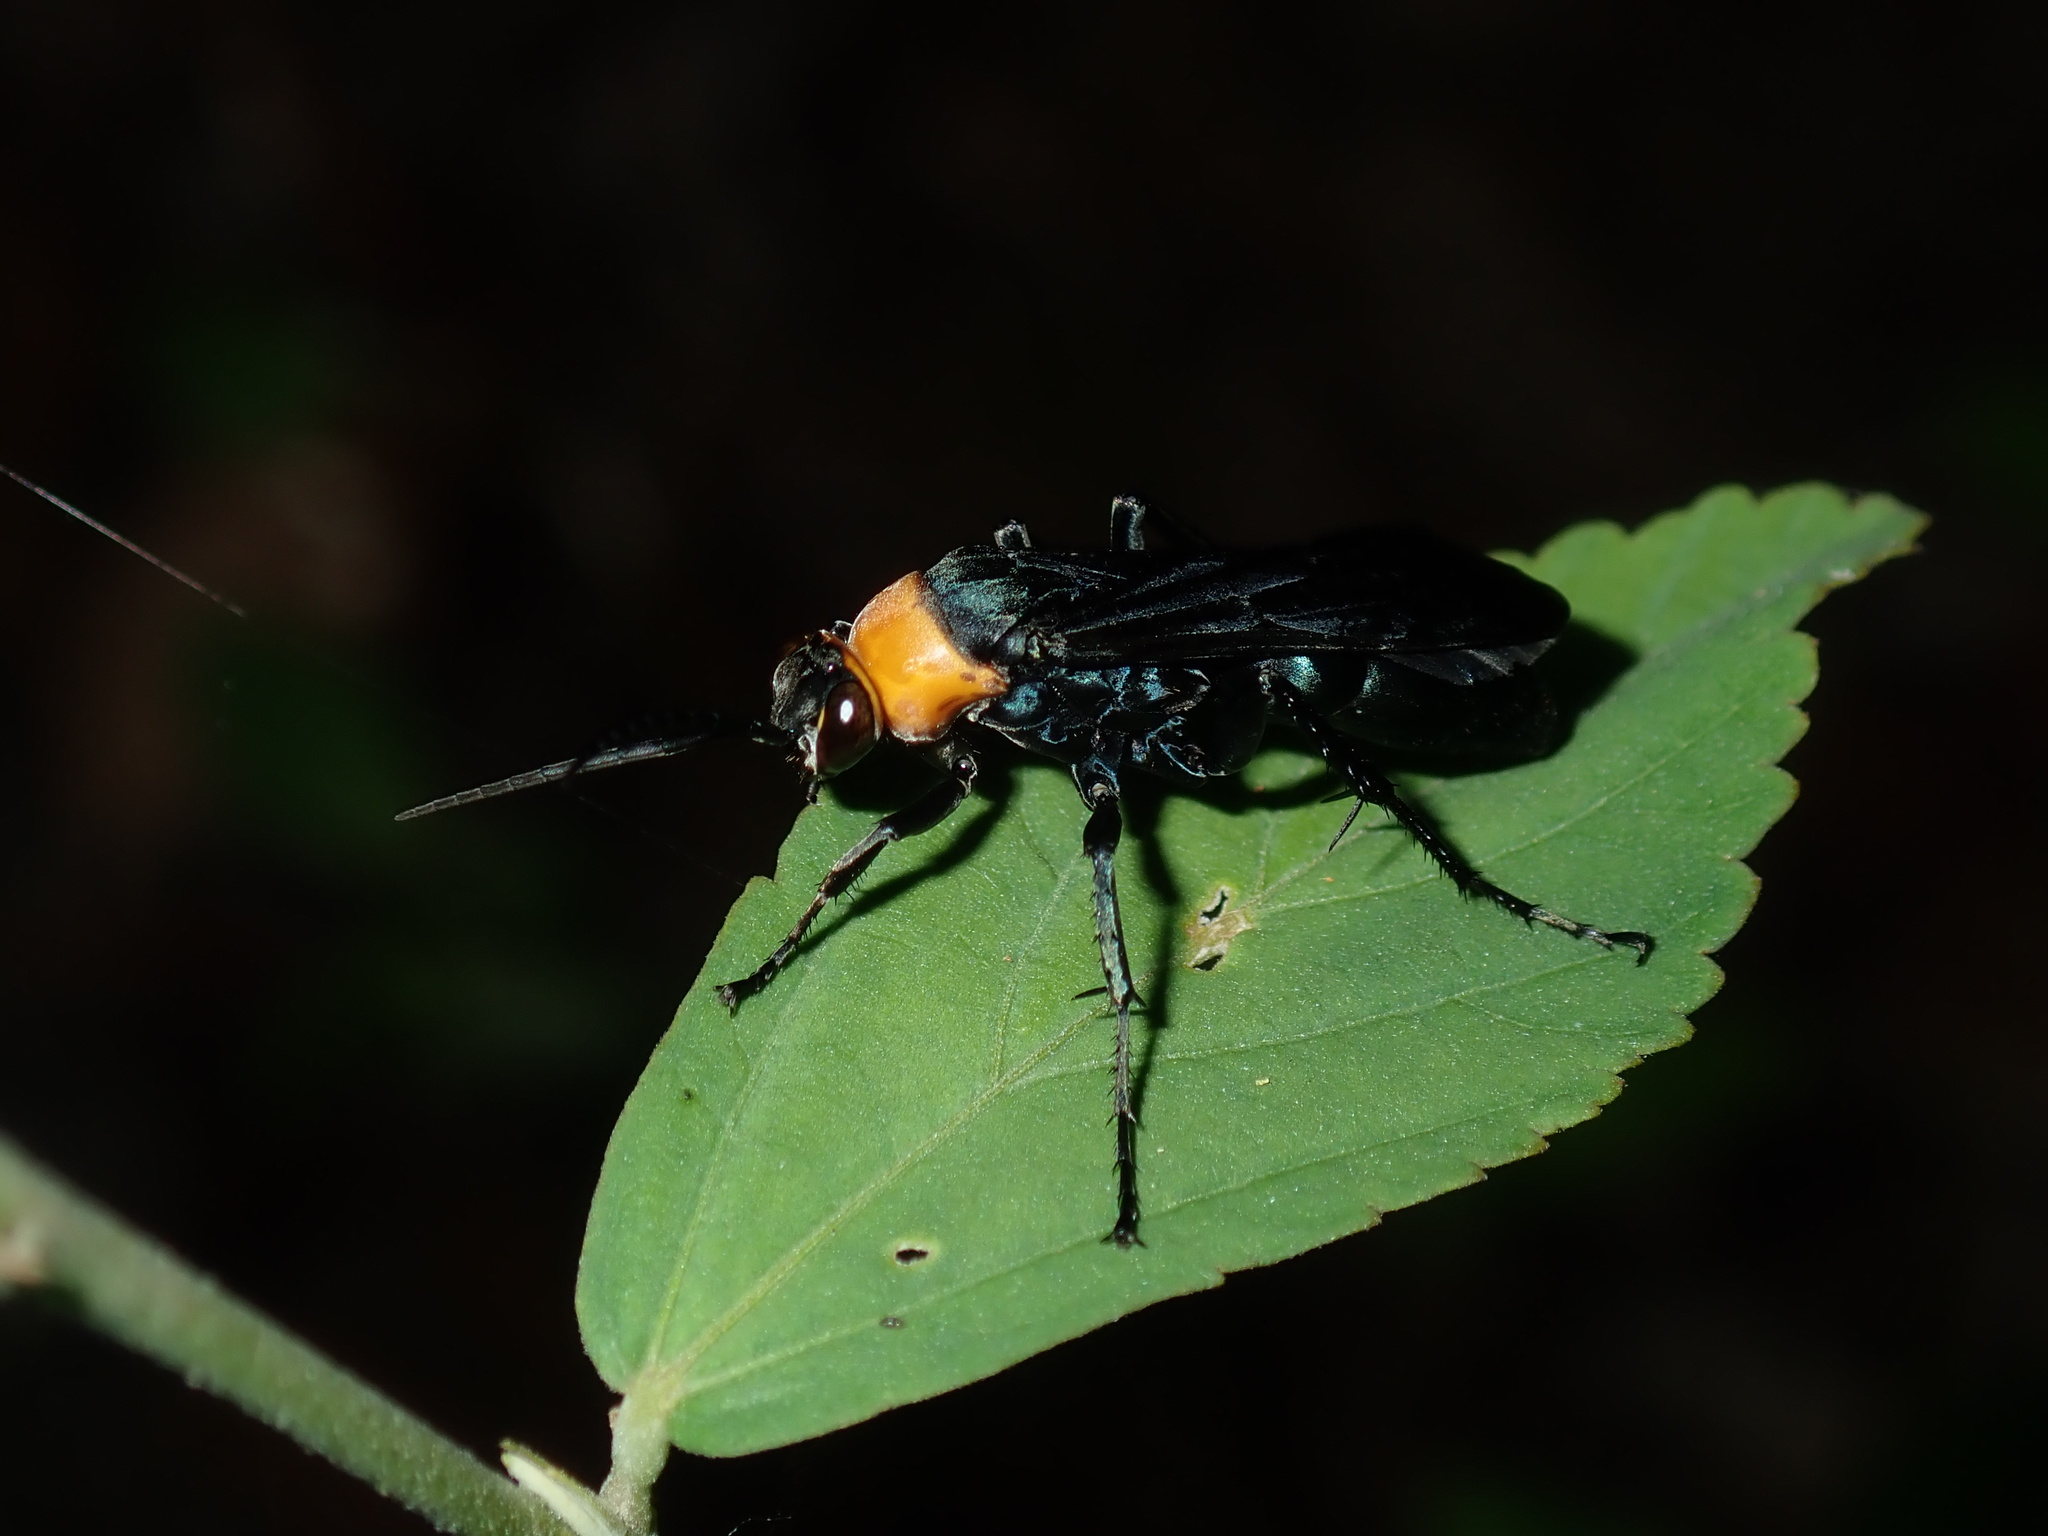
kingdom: Animalia
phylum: Arthropoda
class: Insecta
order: Hymenoptera
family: Pompilidae
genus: Ferreola
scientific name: Ferreola handschini
